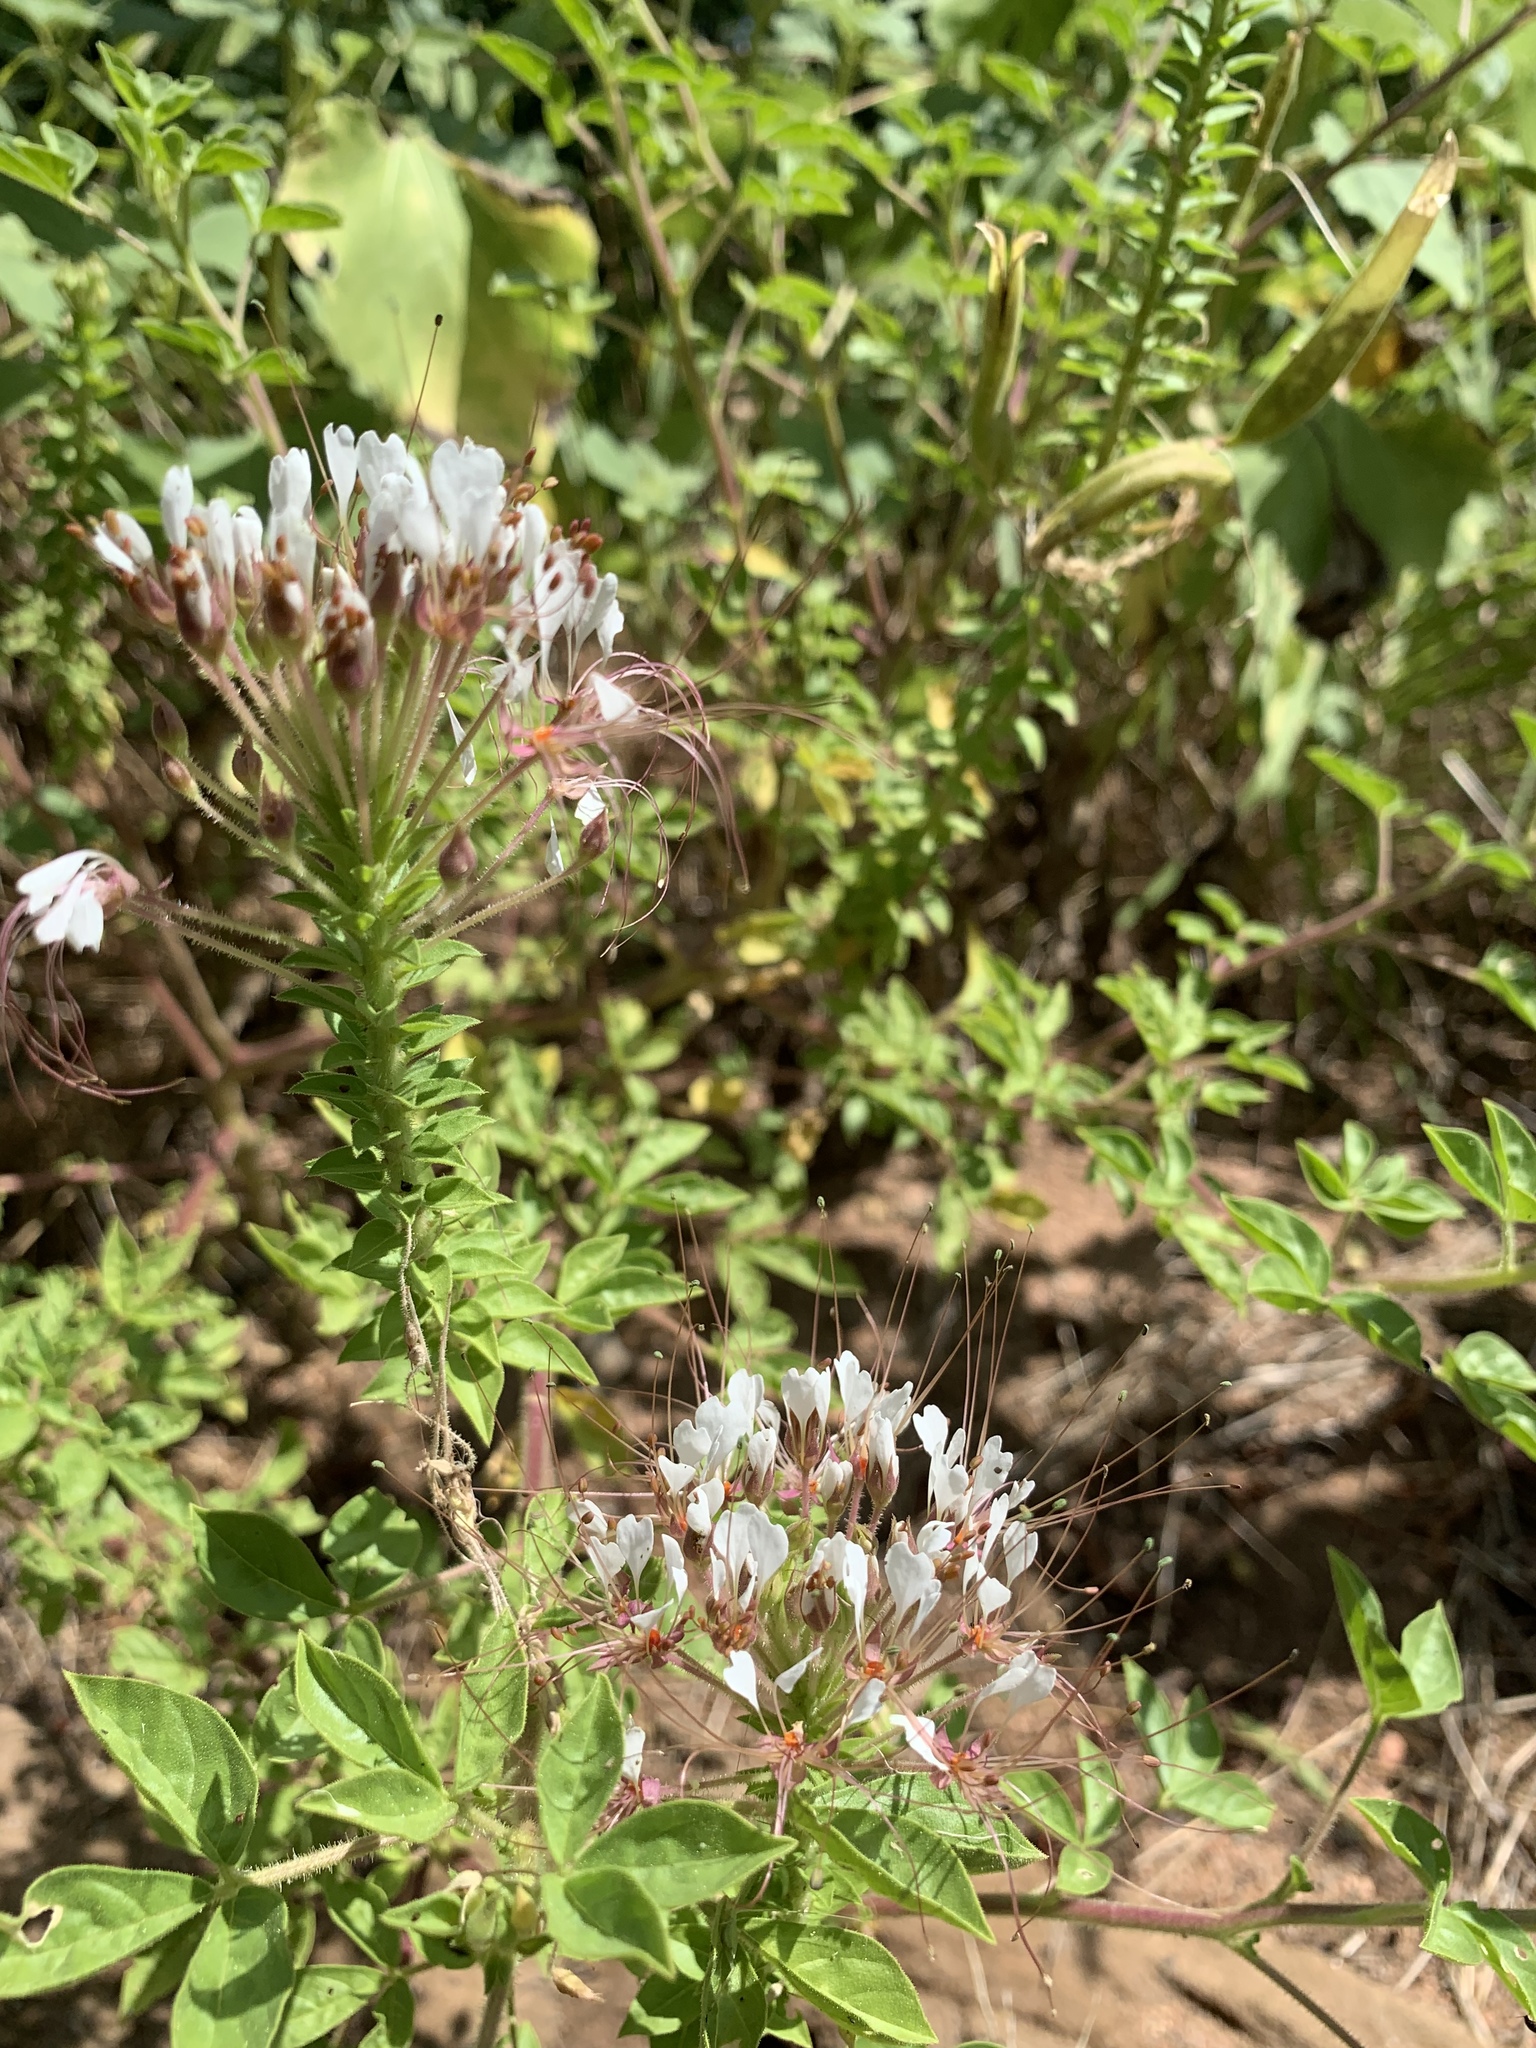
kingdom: Plantae
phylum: Tracheophyta
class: Magnoliopsida
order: Brassicales
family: Cleomaceae
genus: Polanisia
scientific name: Polanisia dodecandra
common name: Clammyweed
